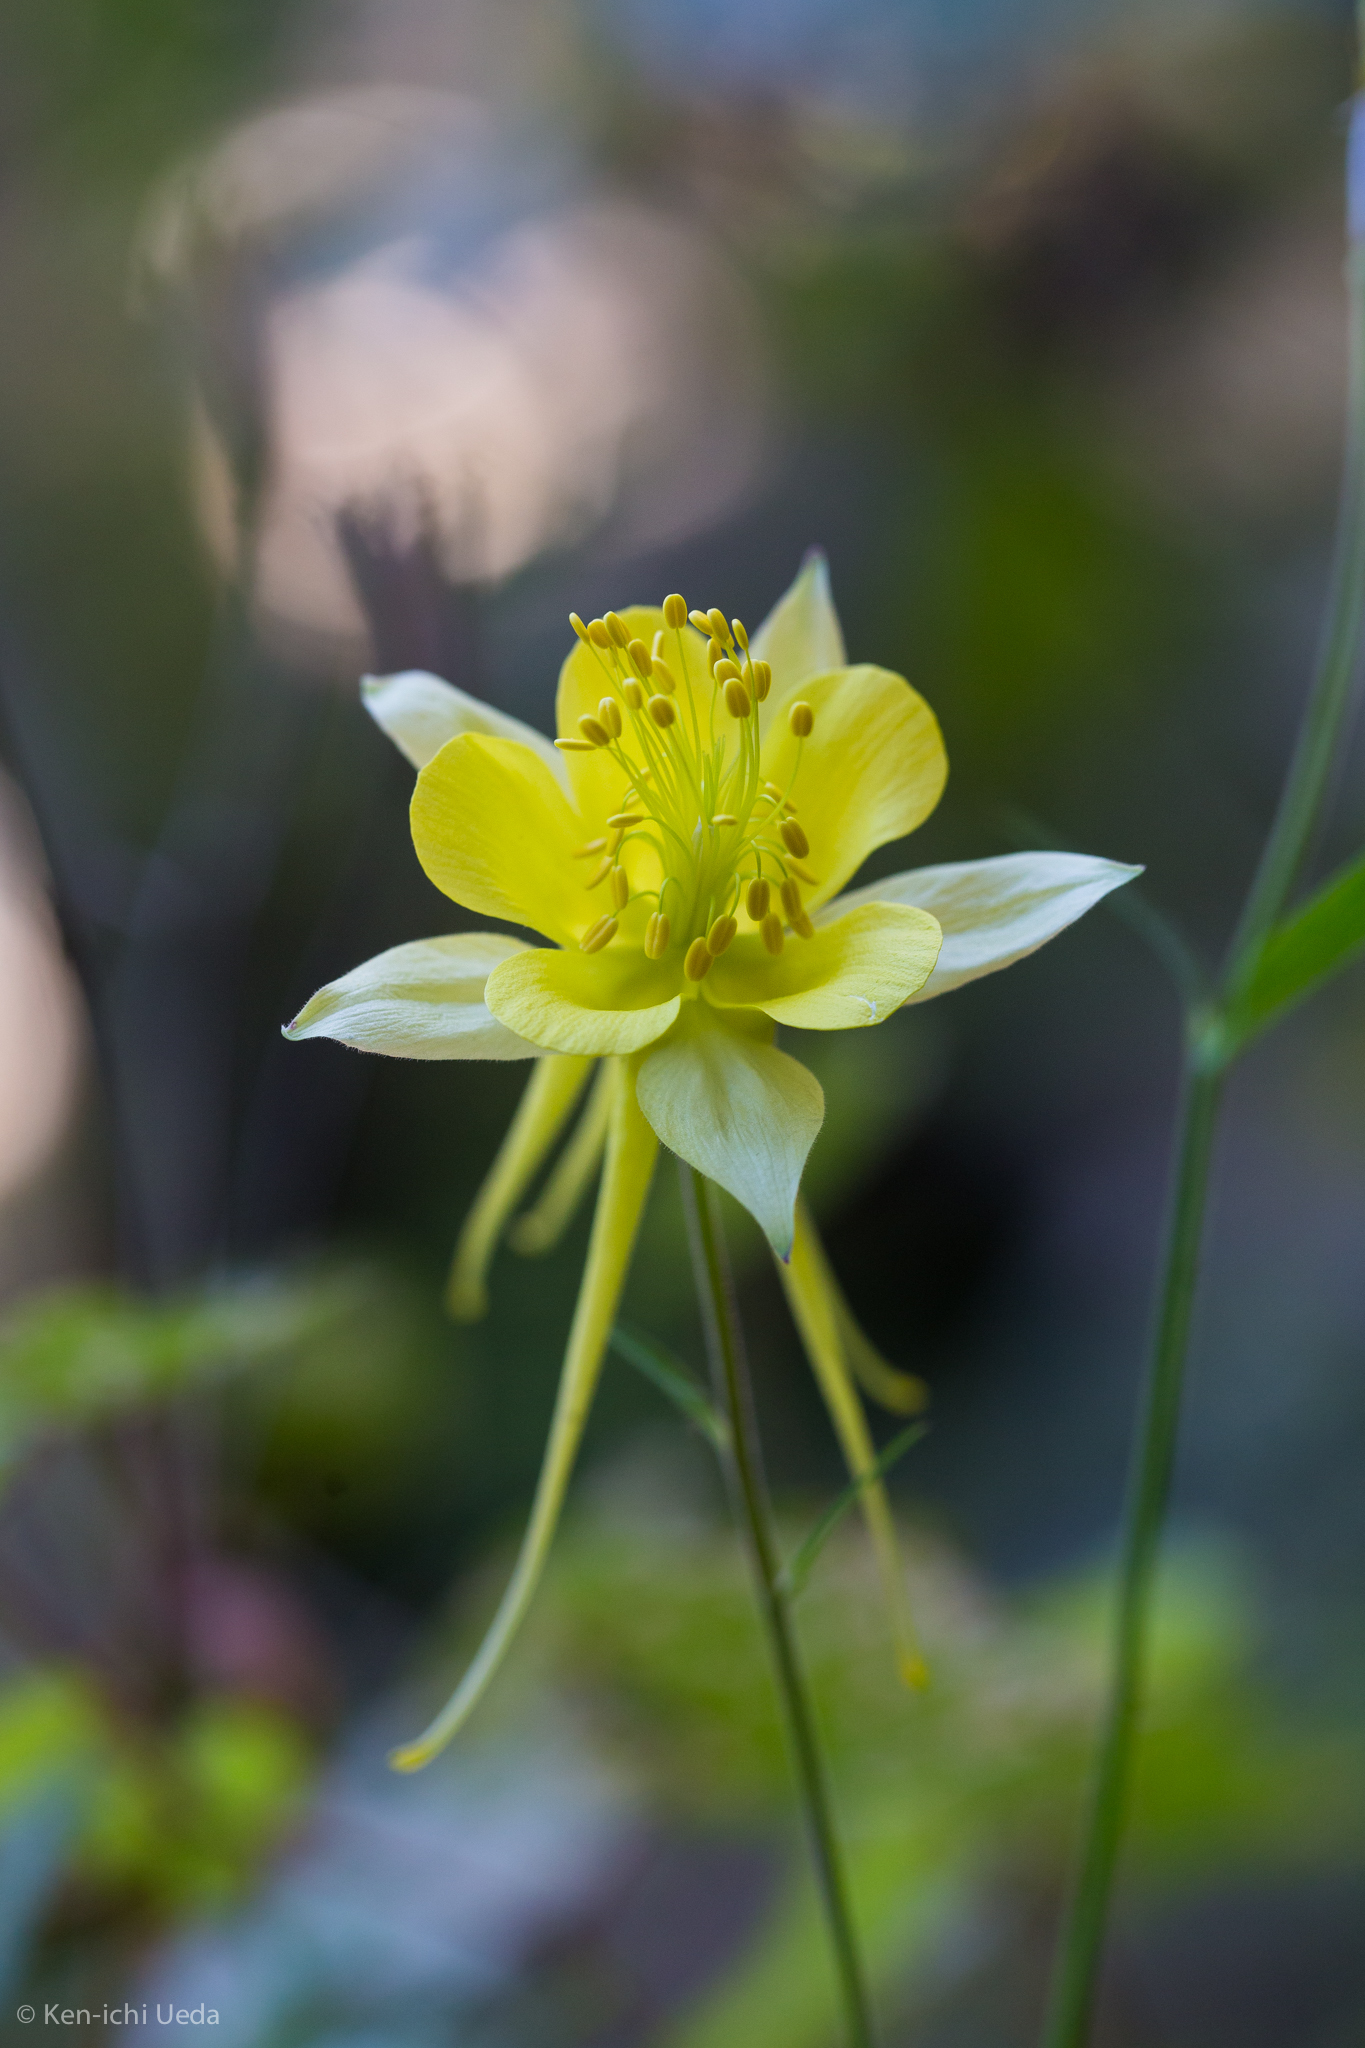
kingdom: Plantae
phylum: Tracheophyta
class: Magnoliopsida
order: Ranunculales
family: Ranunculaceae
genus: Aquilegia
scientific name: Aquilegia chrysantha
